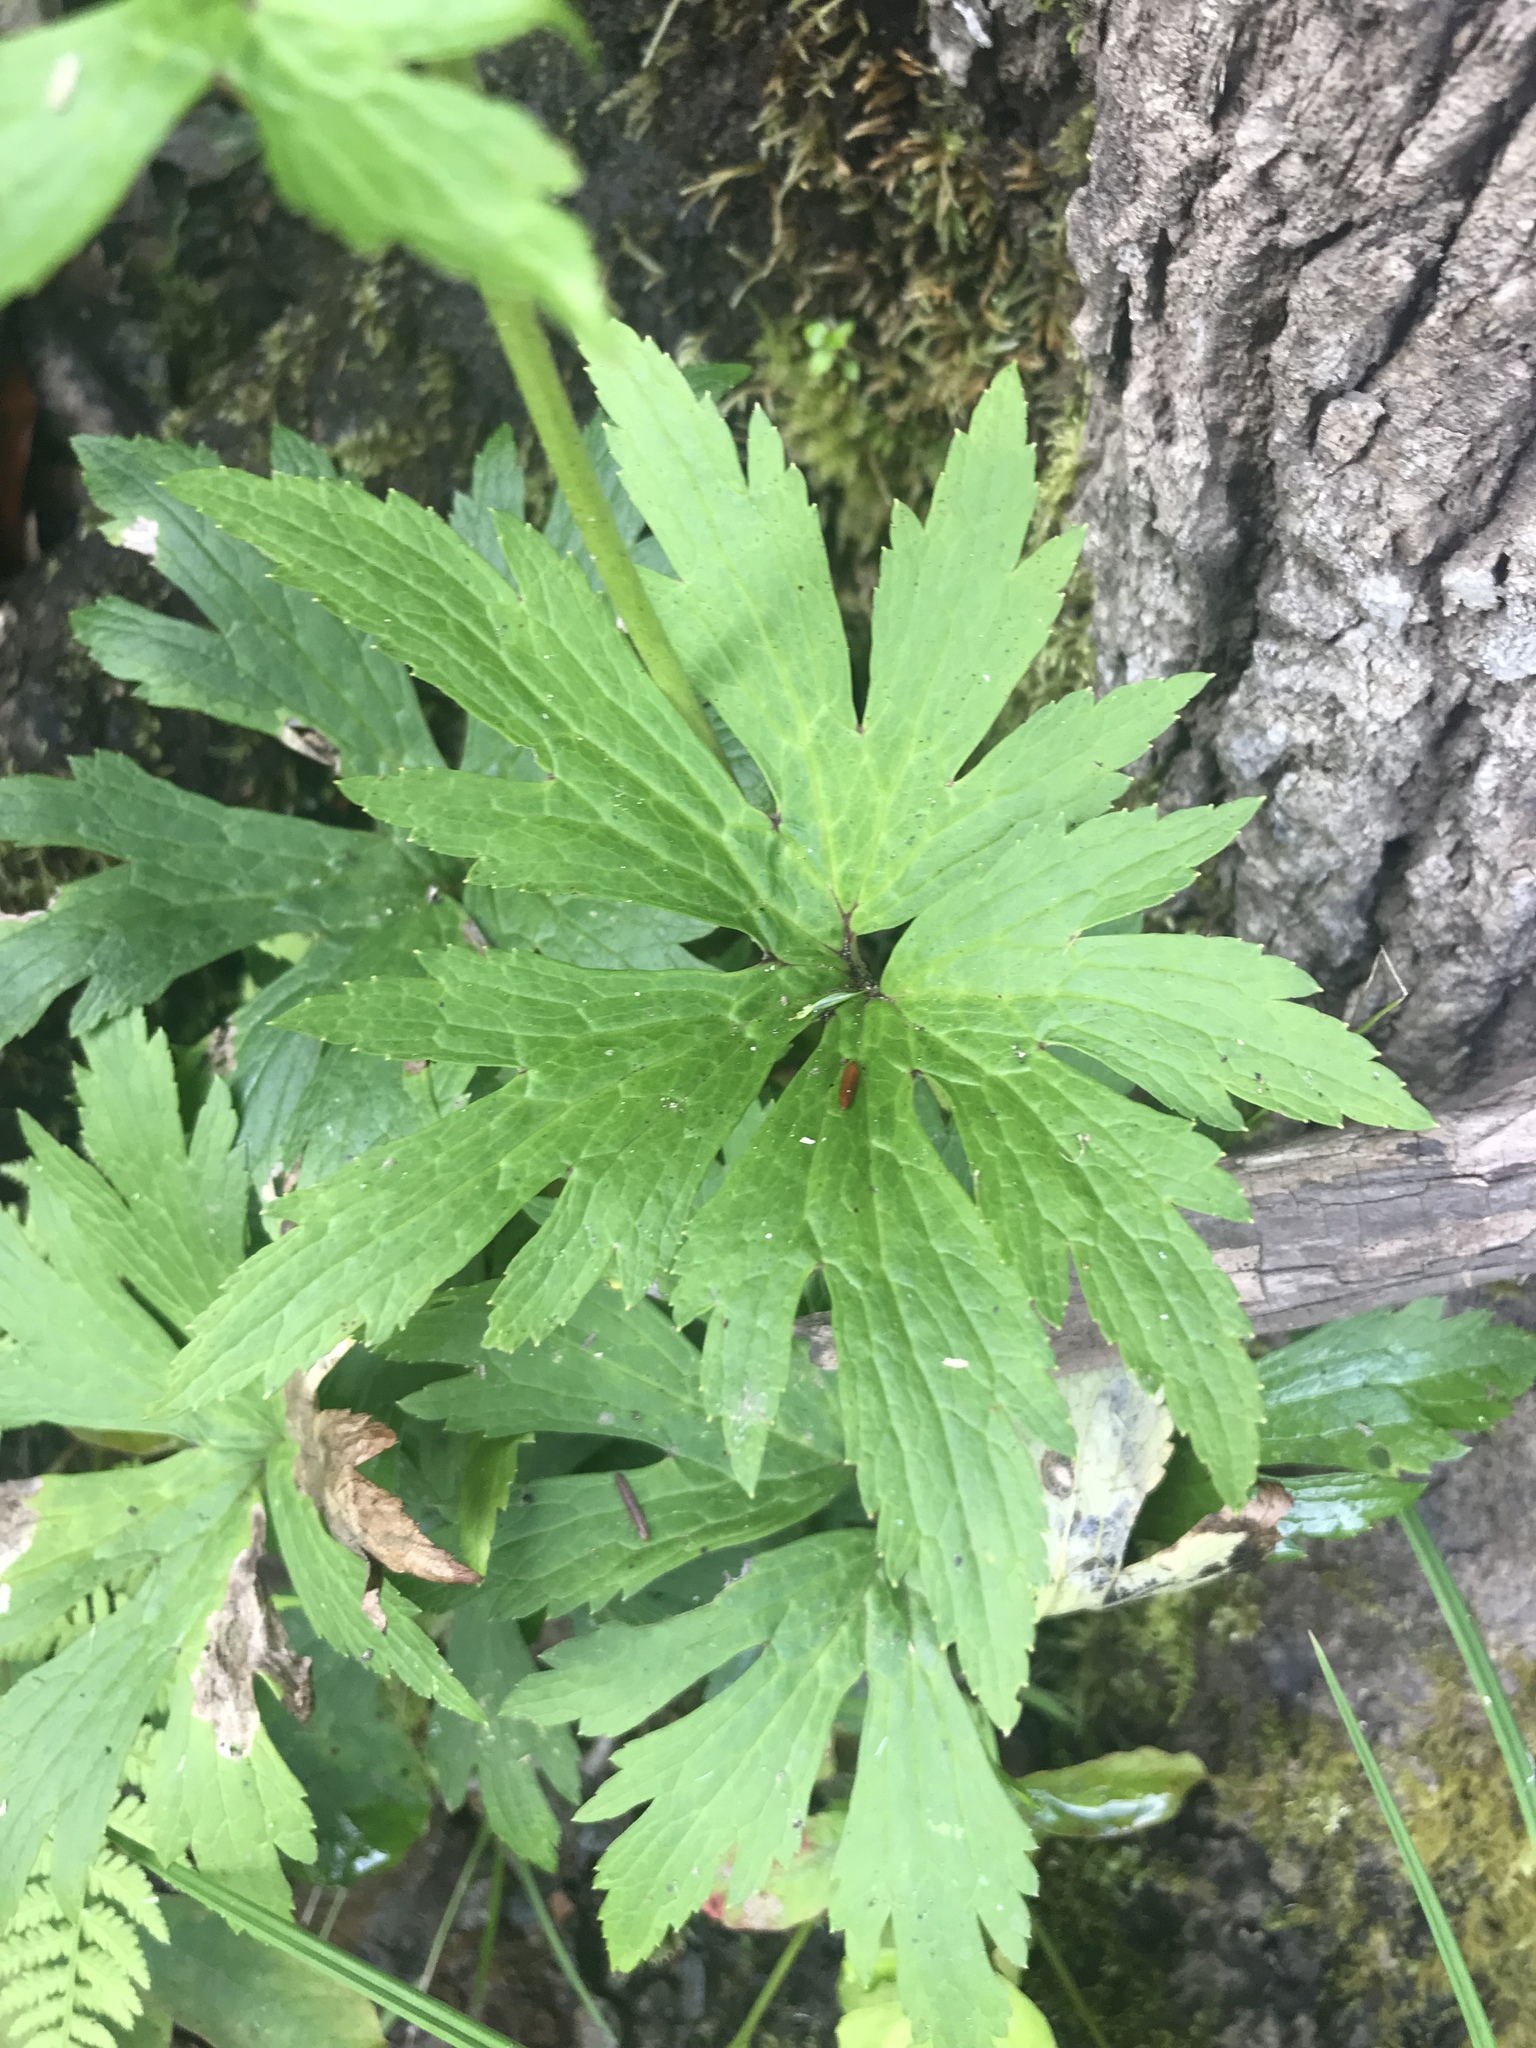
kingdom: Plantae
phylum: Tracheophyta
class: Magnoliopsida
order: Ranunculales
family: Ranunculaceae
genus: Trautvetteria
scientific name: Trautvetteria carolinensis
